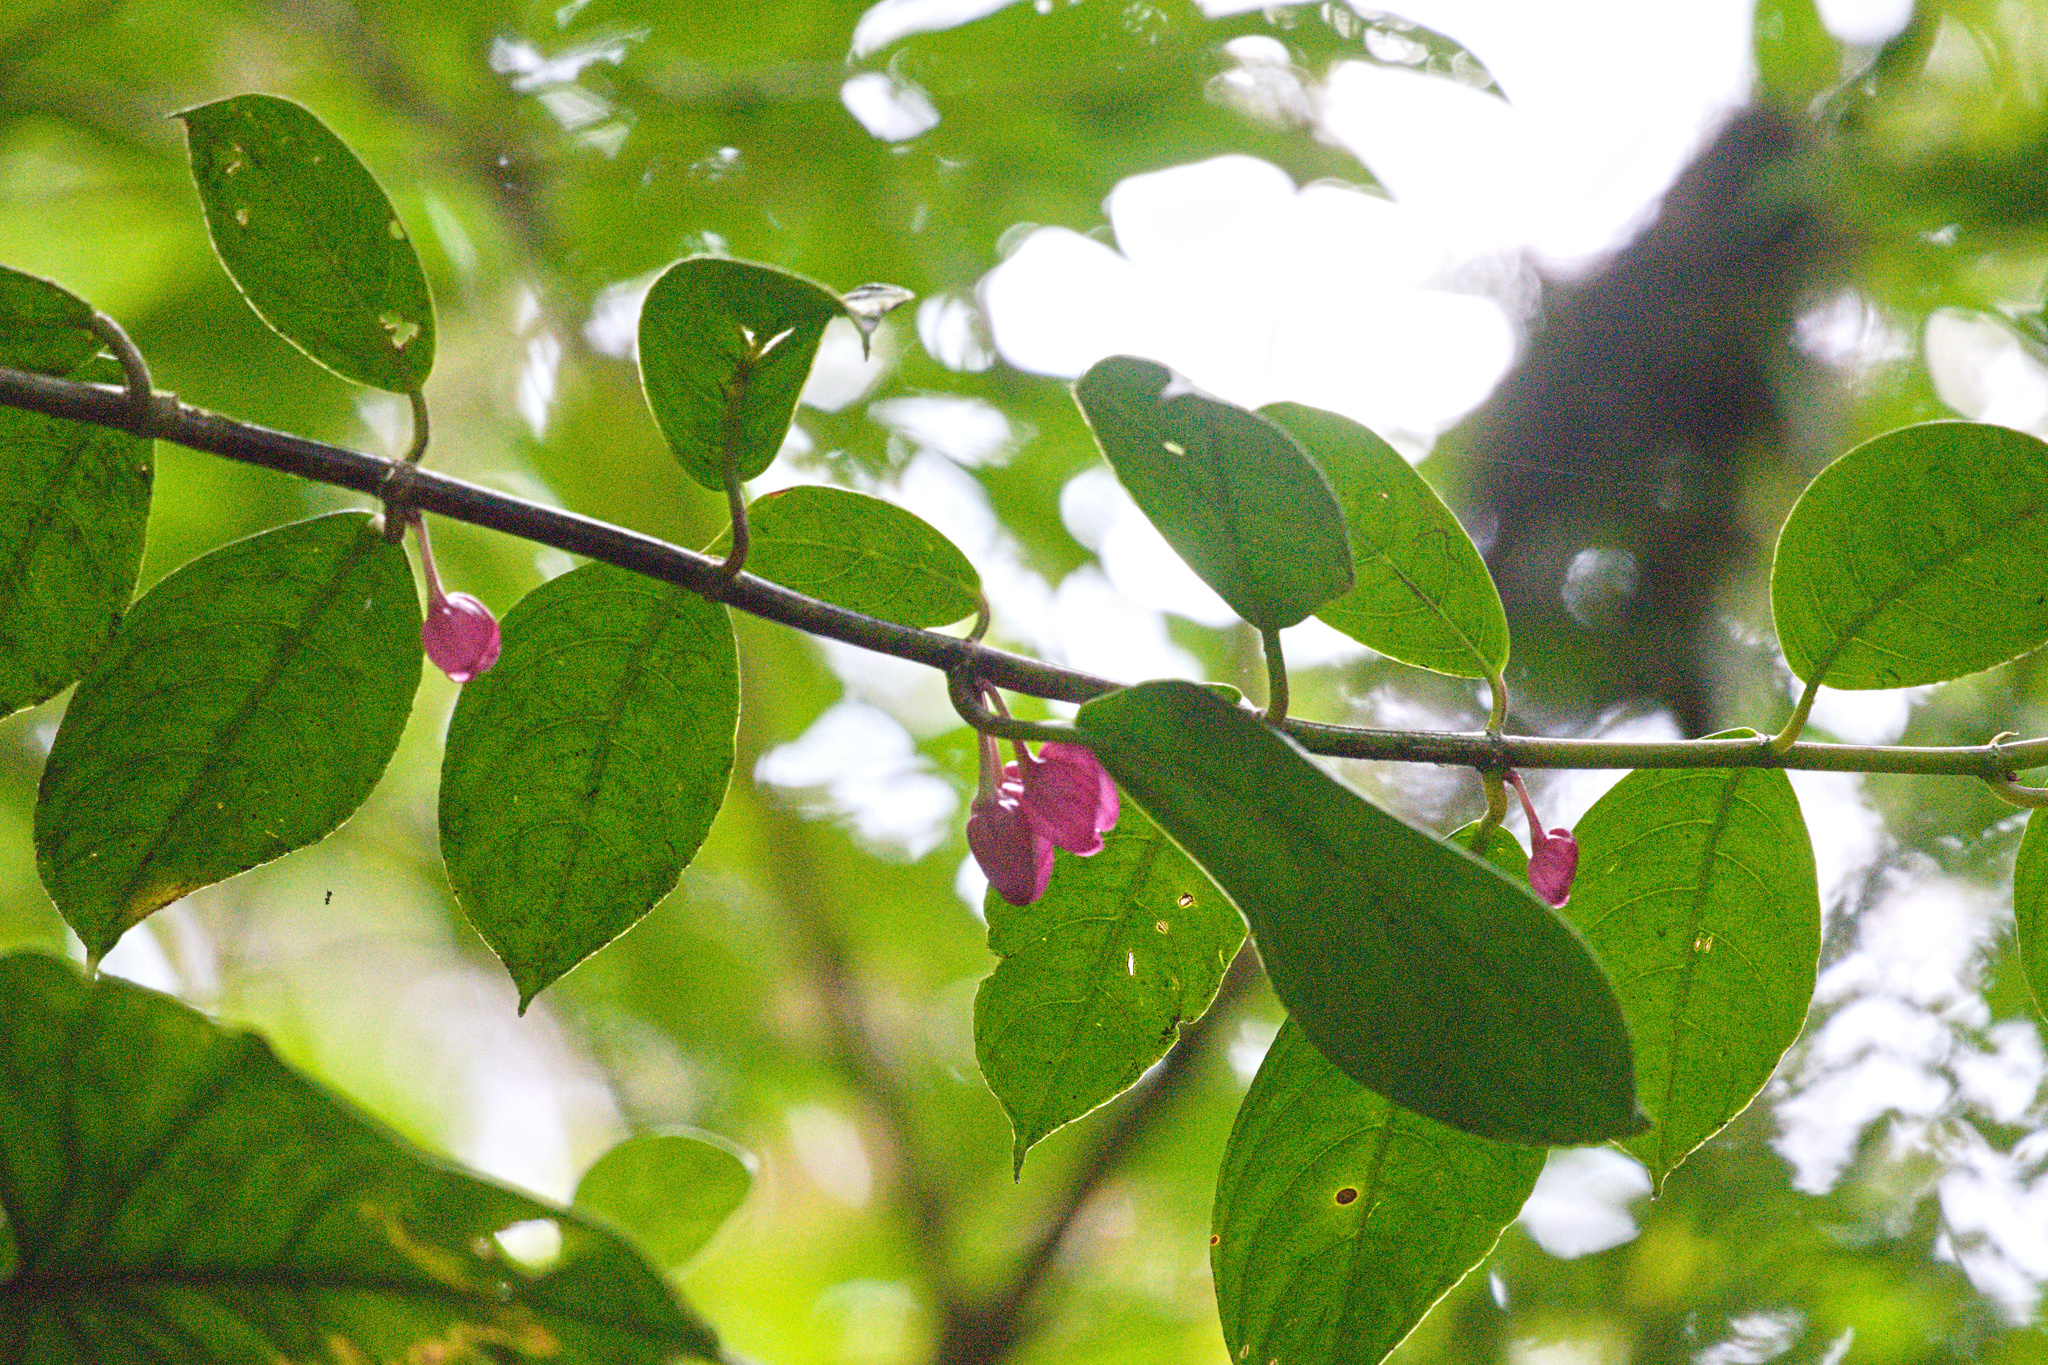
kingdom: Plantae
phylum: Tracheophyta
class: Magnoliopsida
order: Lamiales
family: Gesneriaceae
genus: Drymonia
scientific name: Drymonia conchocalyx
